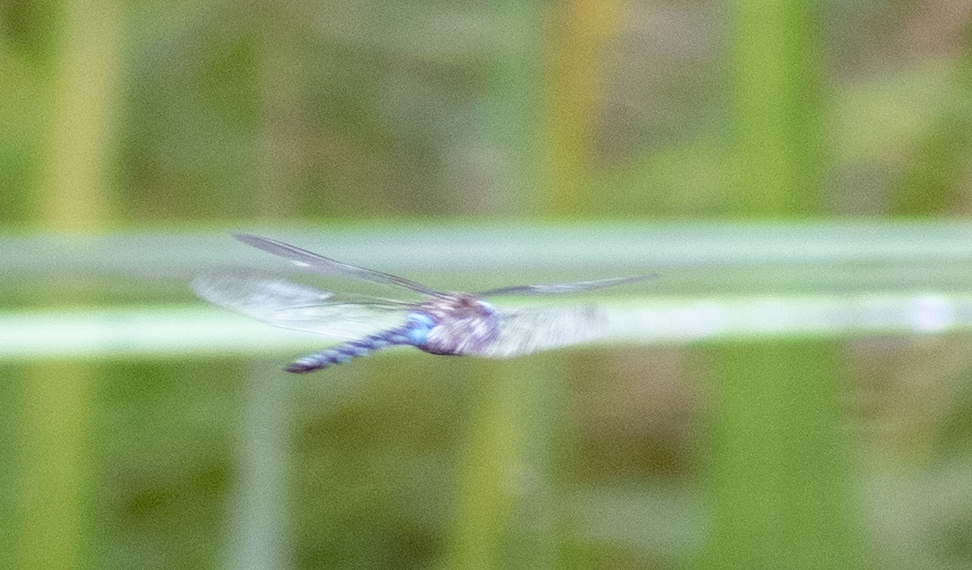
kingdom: Animalia
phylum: Arthropoda
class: Insecta
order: Odonata
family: Aeshnidae
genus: Aeshna
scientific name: Aeshna mixta
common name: Migrant hawker
